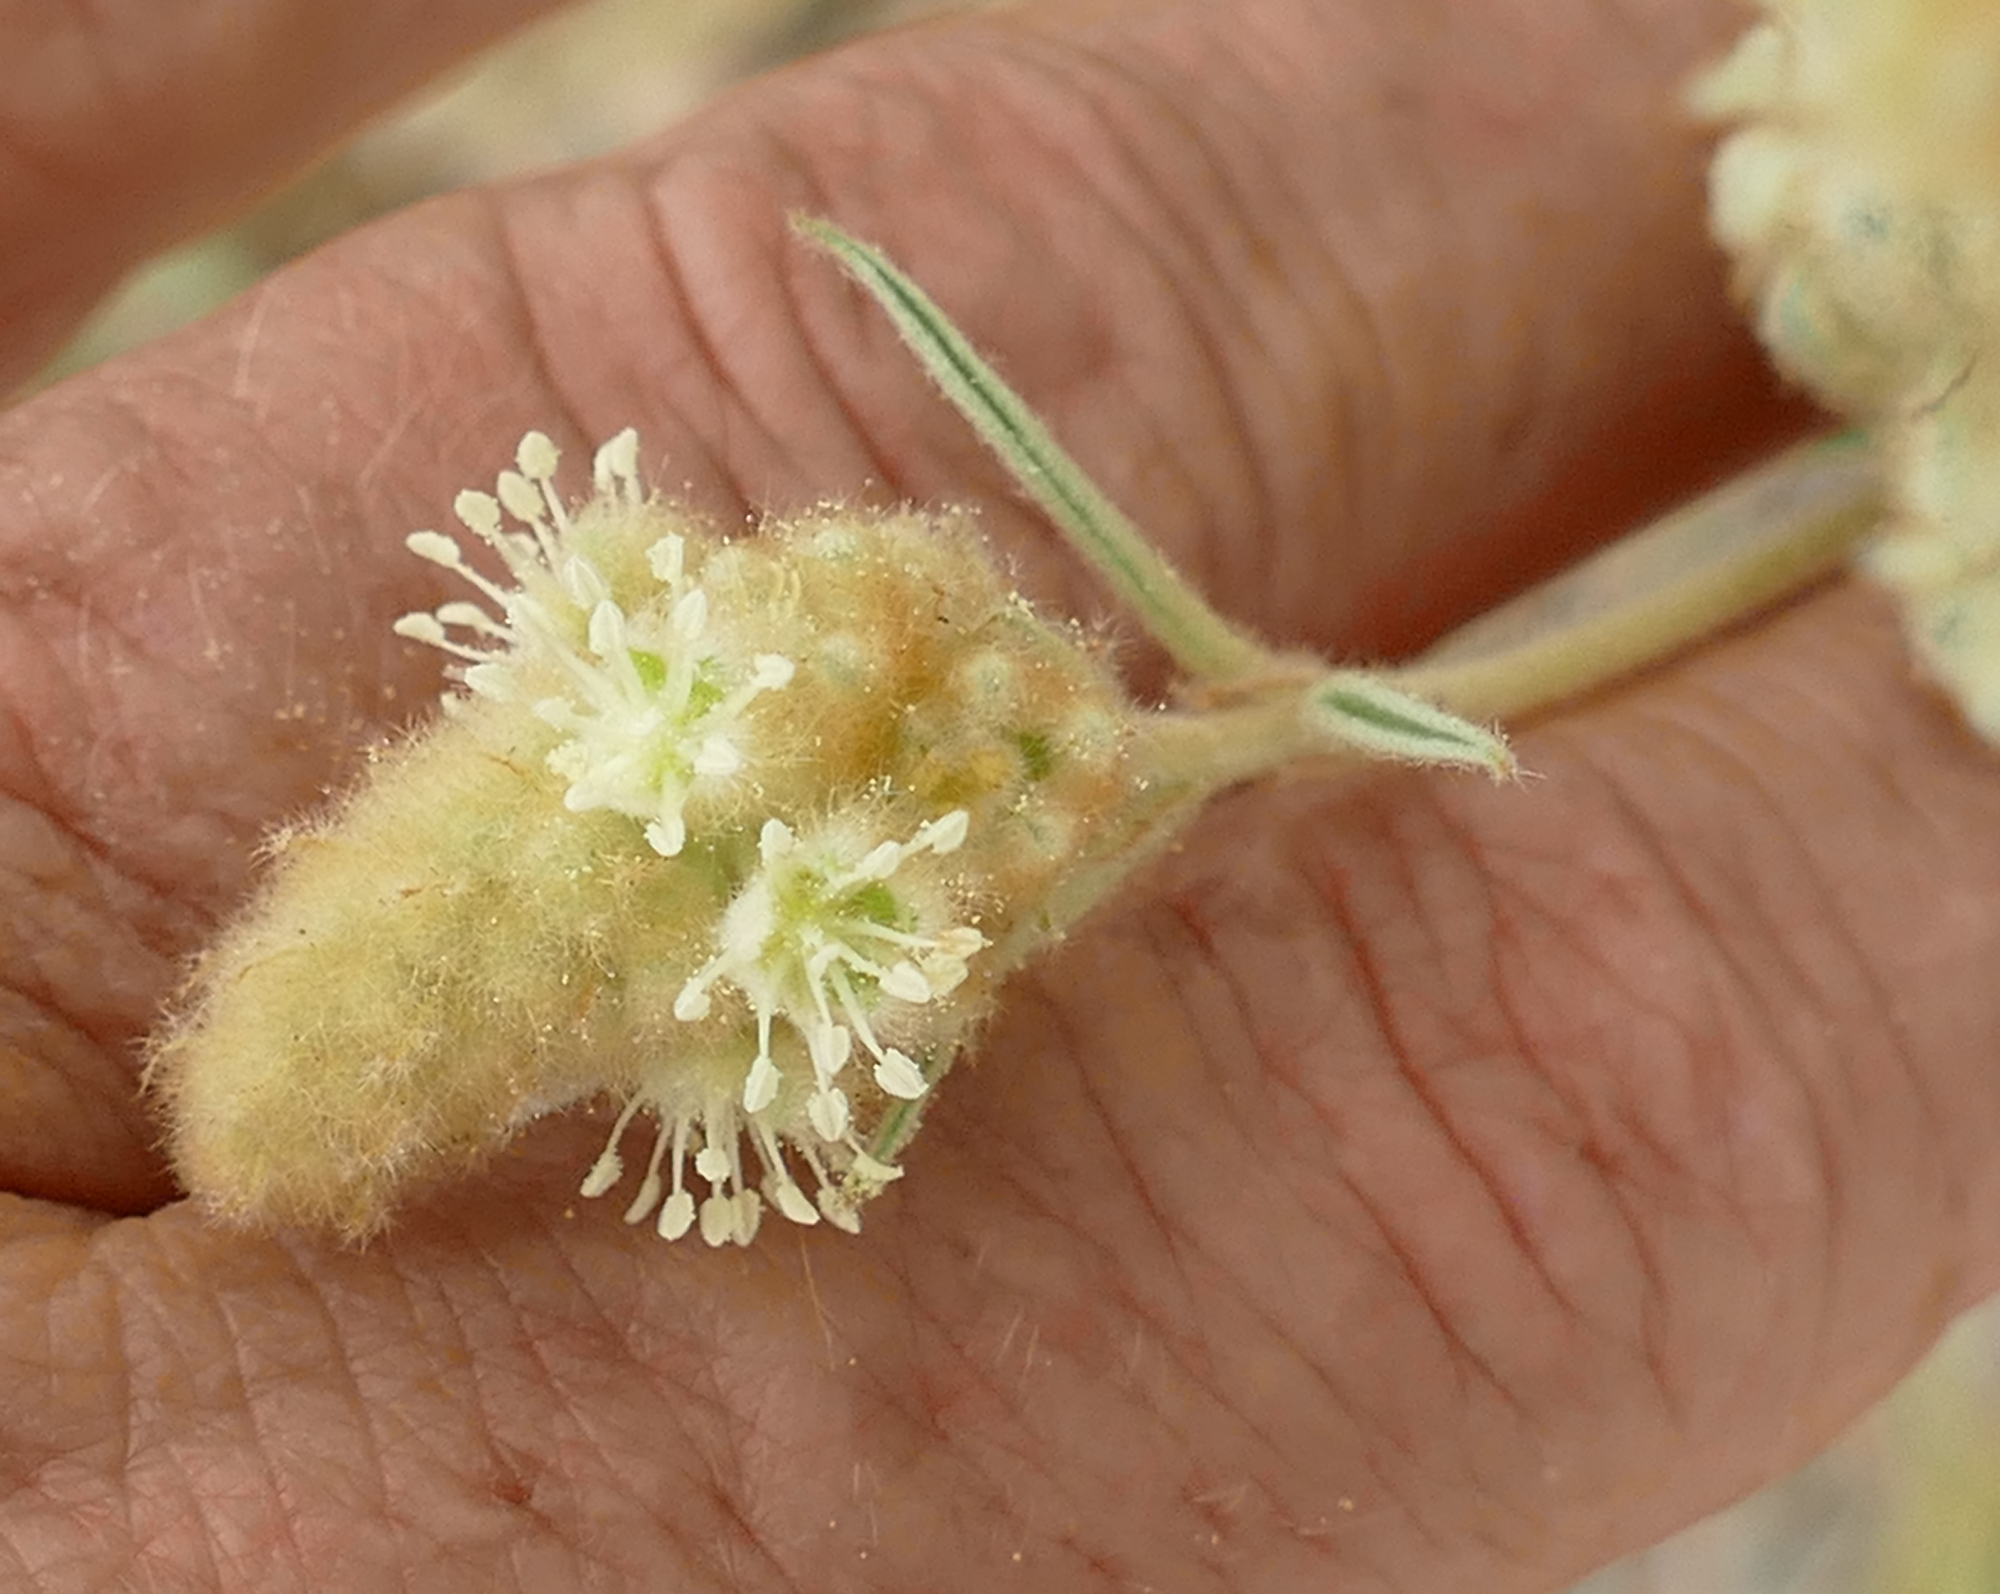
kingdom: Plantae
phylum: Tracheophyta
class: Magnoliopsida
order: Malpighiales
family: Euphorbiaceae
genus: Croton
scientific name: Croton lindheimeri
